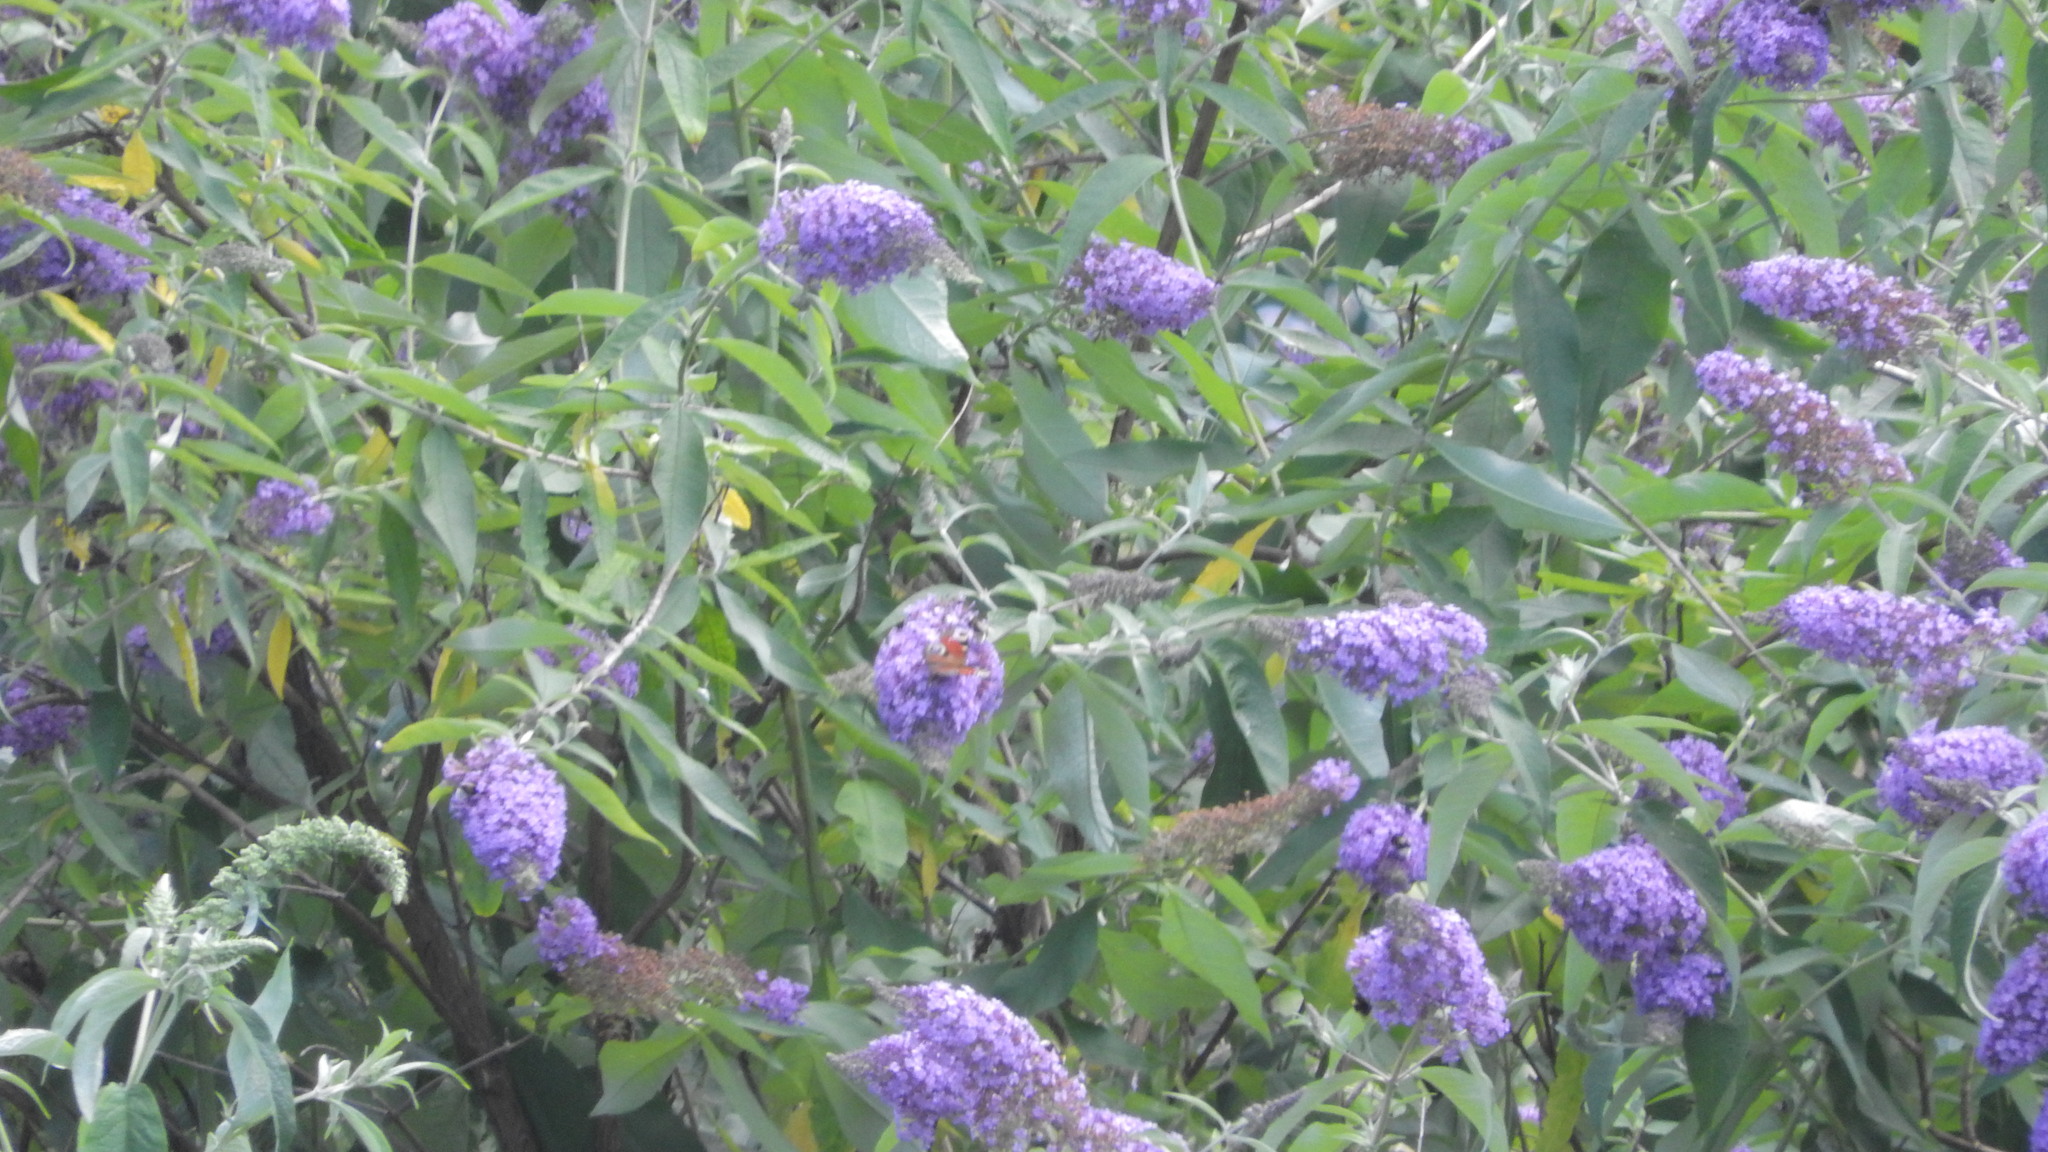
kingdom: Animalia
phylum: Arthropoda
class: Insecta
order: Lepidoptera
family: Nymphalidae
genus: Aglais
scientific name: Aglais io
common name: Peacock
